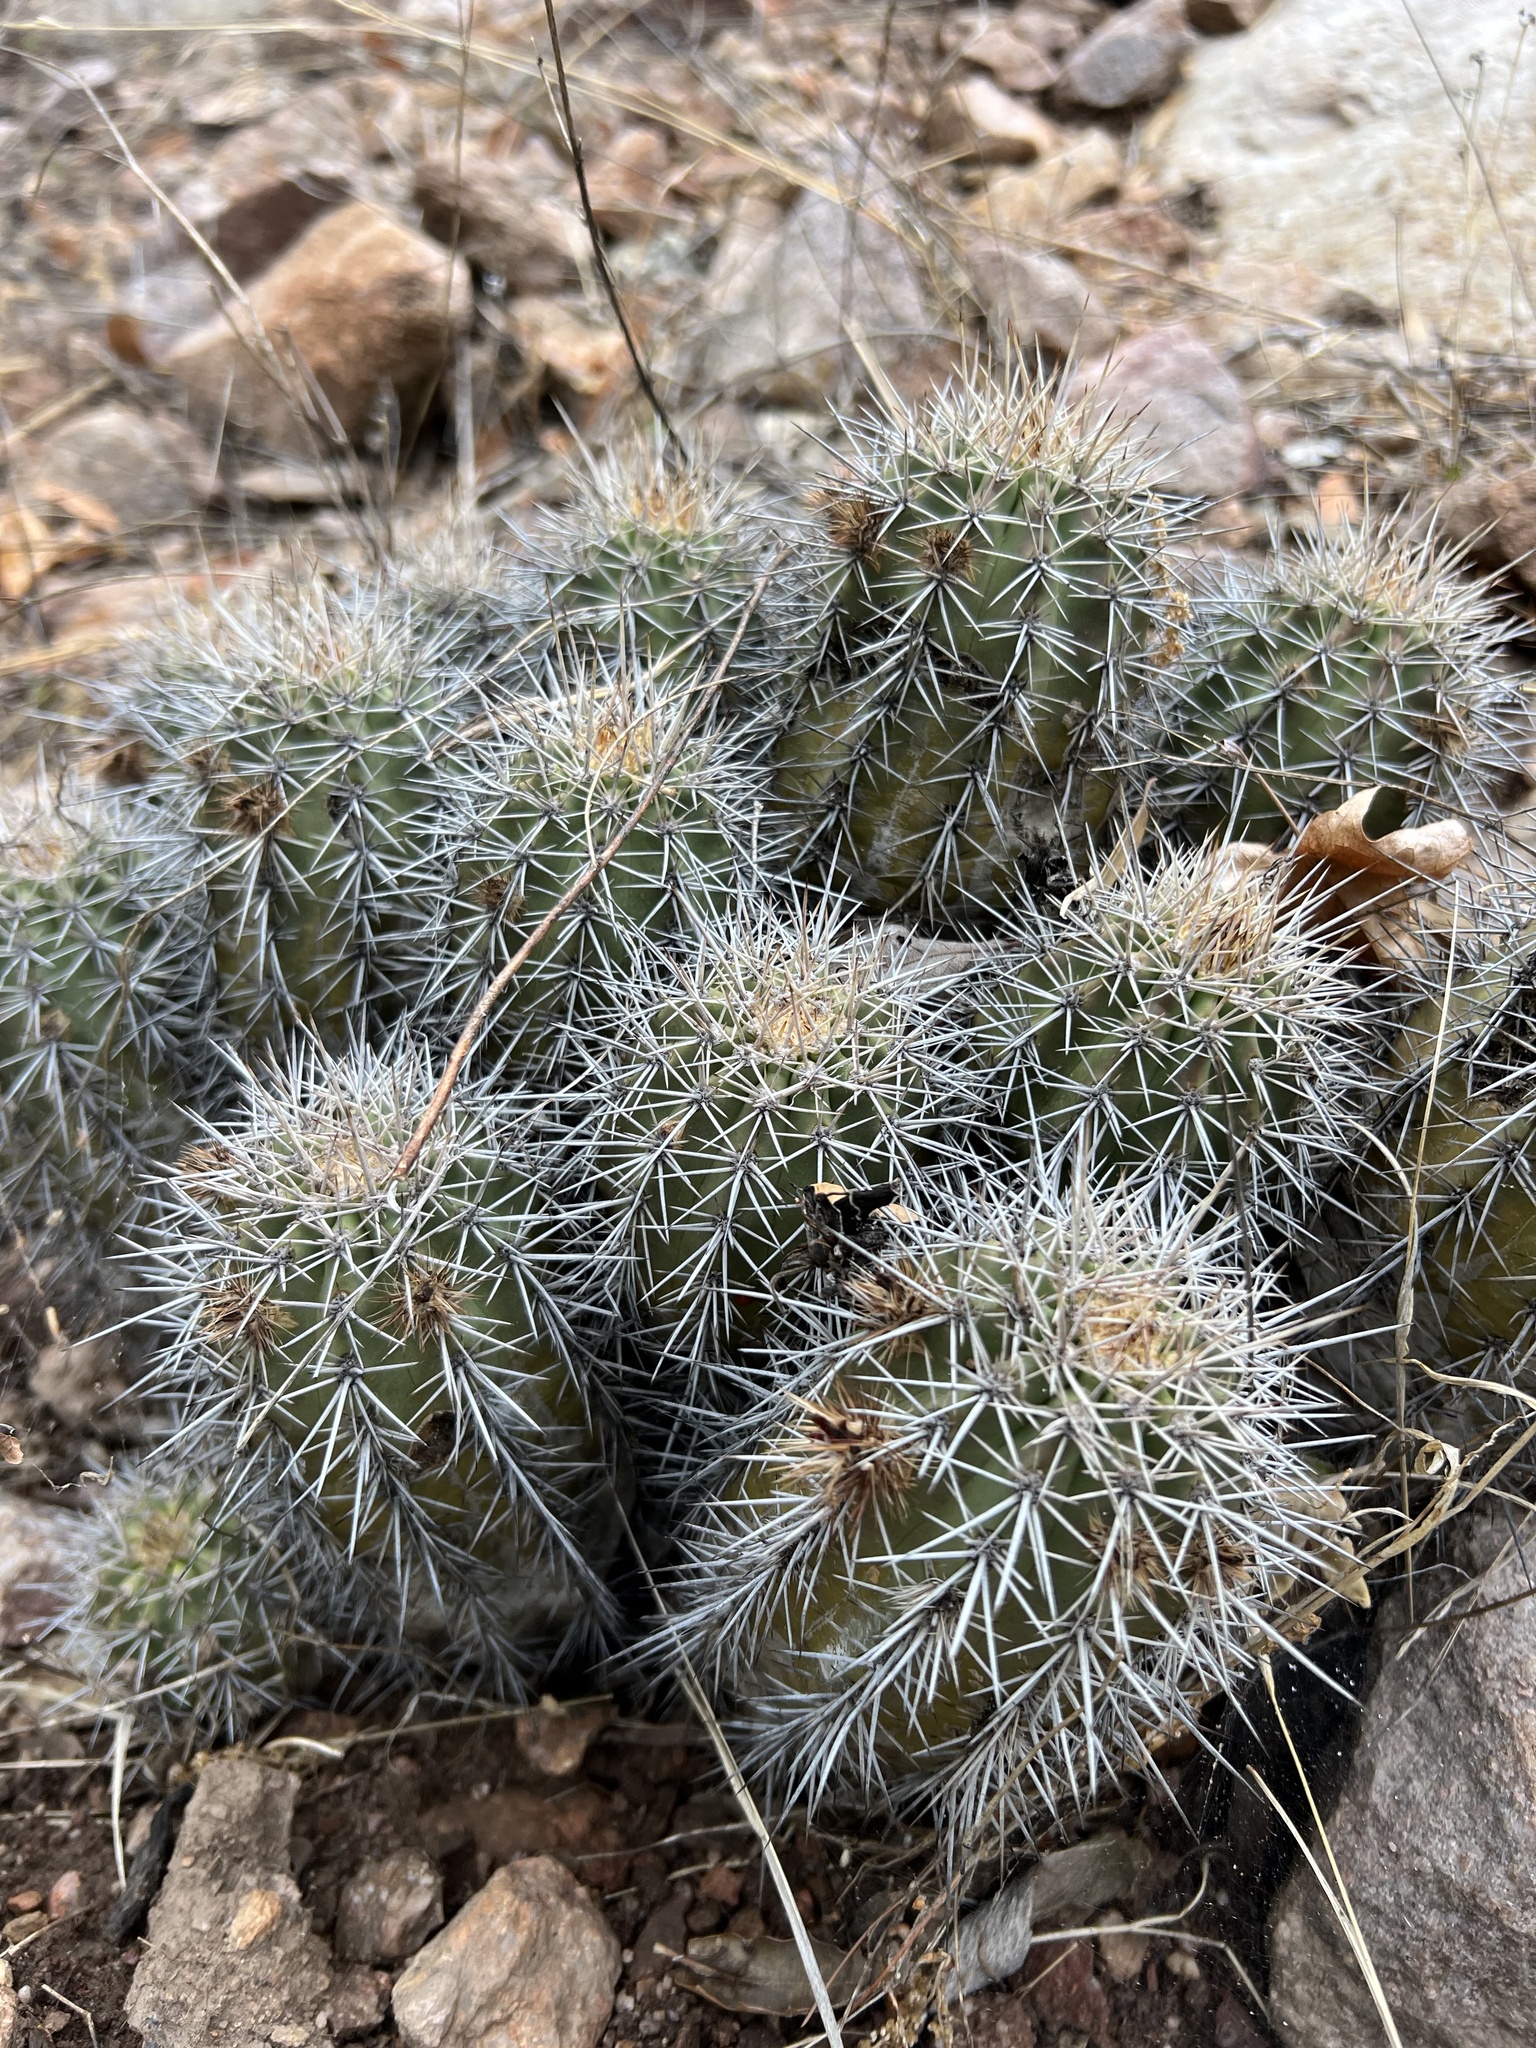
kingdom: Plantae
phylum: Tracheophyta
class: Magnoliopsida
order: Caryophyllales
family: Cactaceae
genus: Echinocereus
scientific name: Echinocereus coccineus
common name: Scarlet hedgehog cactus
